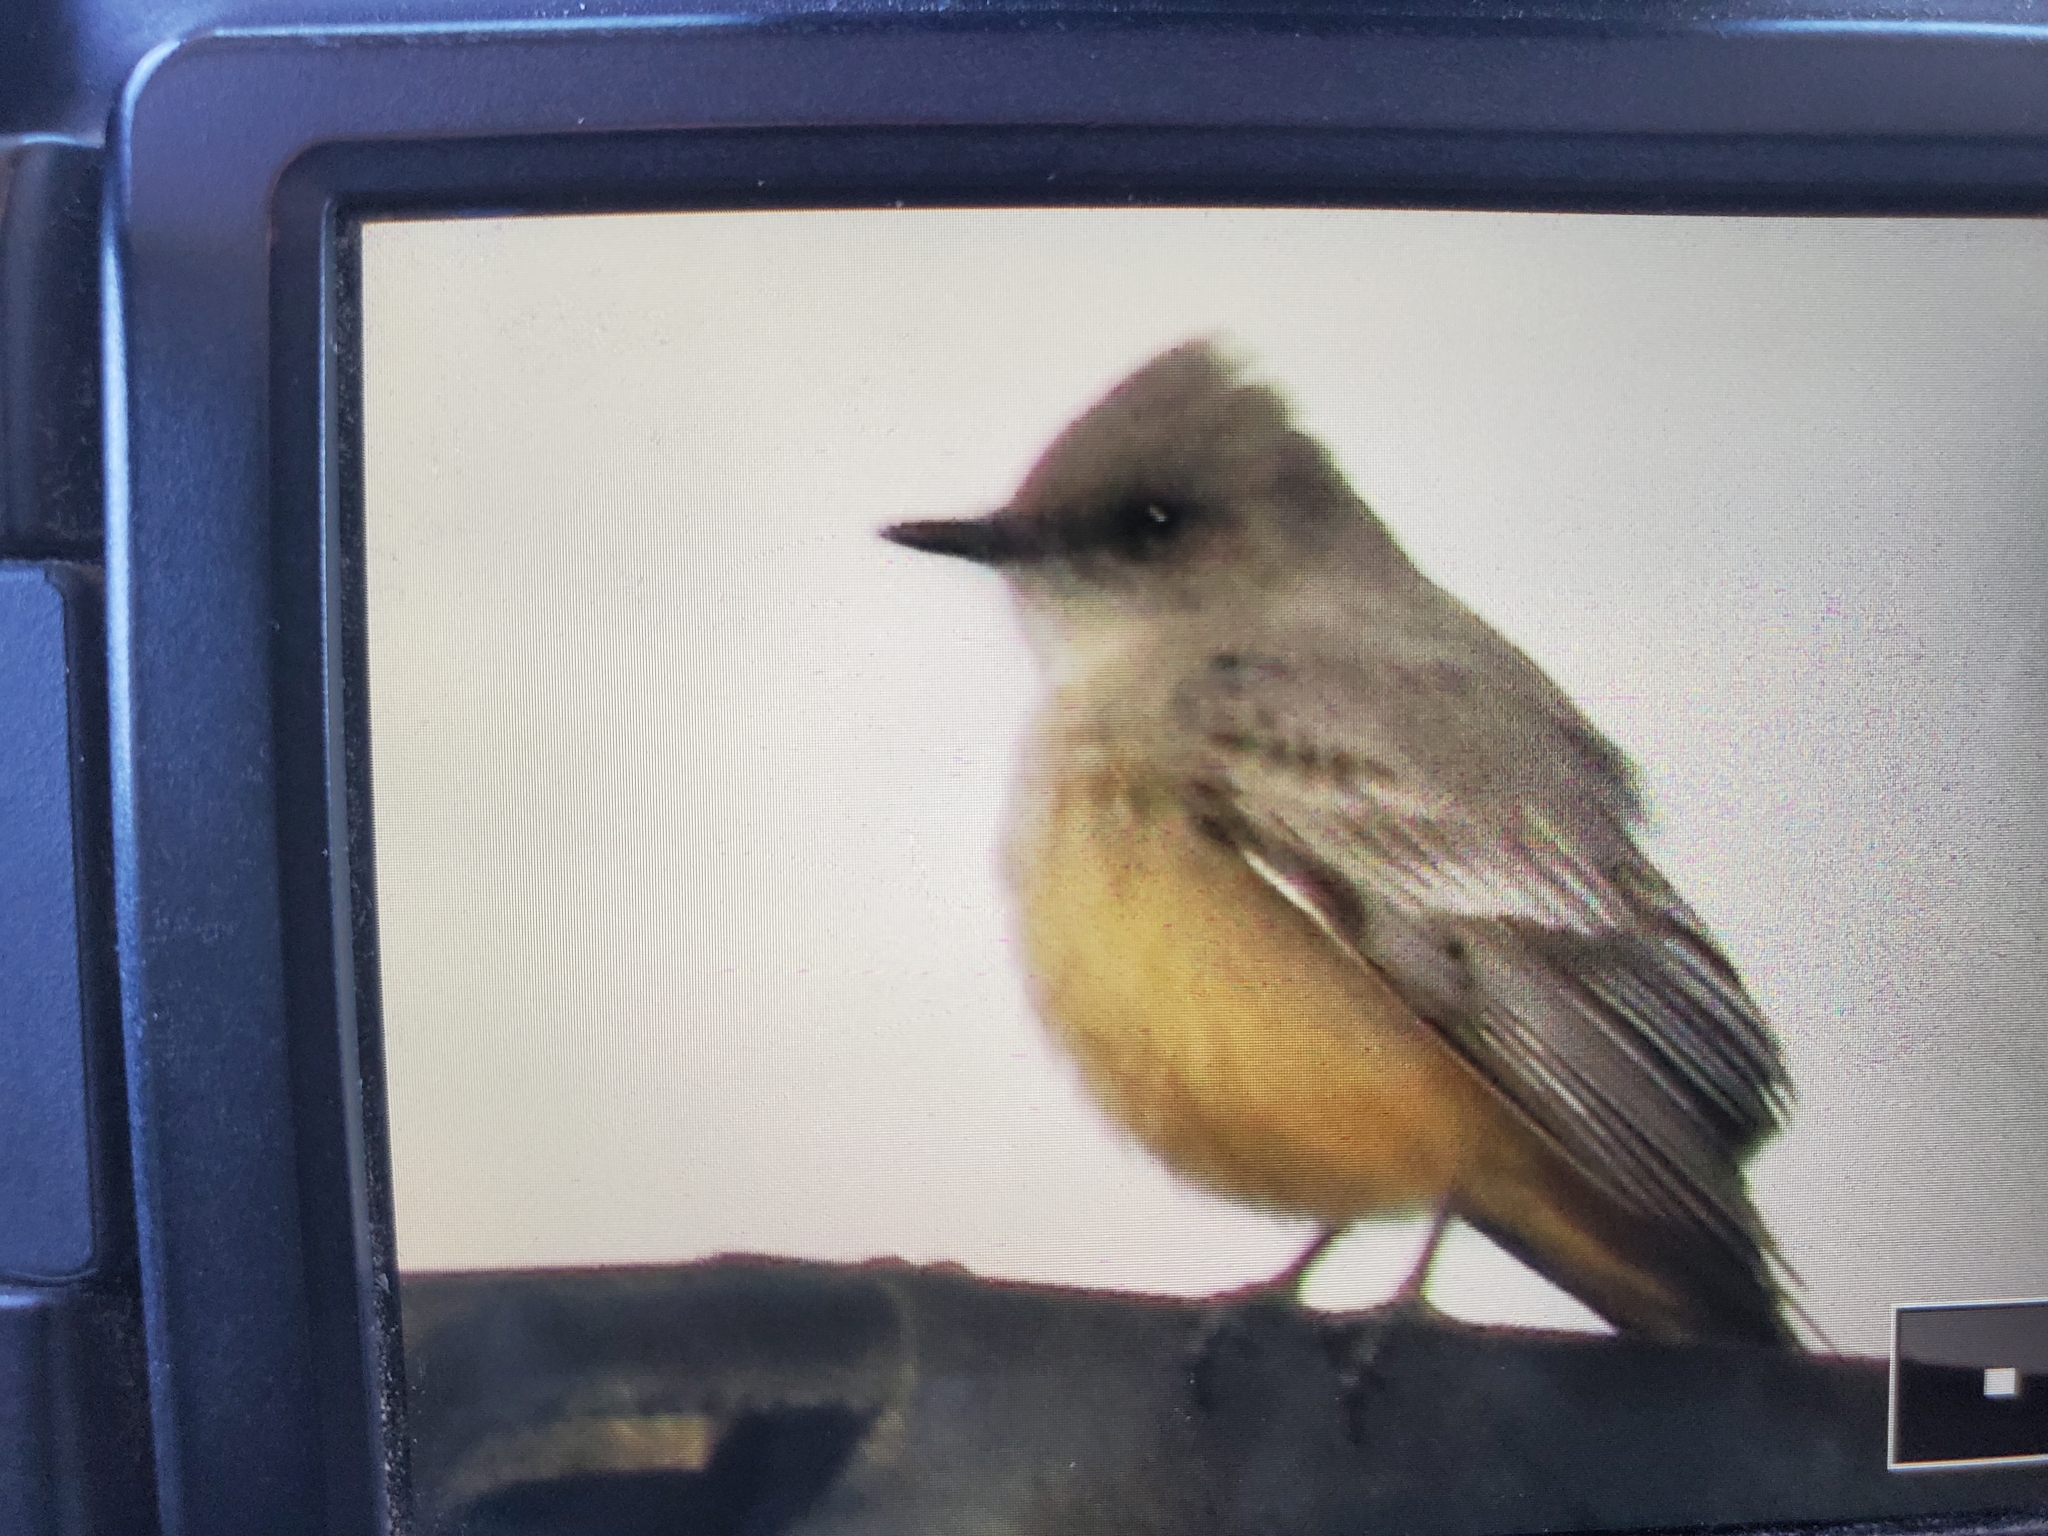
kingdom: Animalia
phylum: Chordata
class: Aves
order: Passeriformes
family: Tyrannidae
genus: Sayornis
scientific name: Sayornis saya
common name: Say's phoebe
